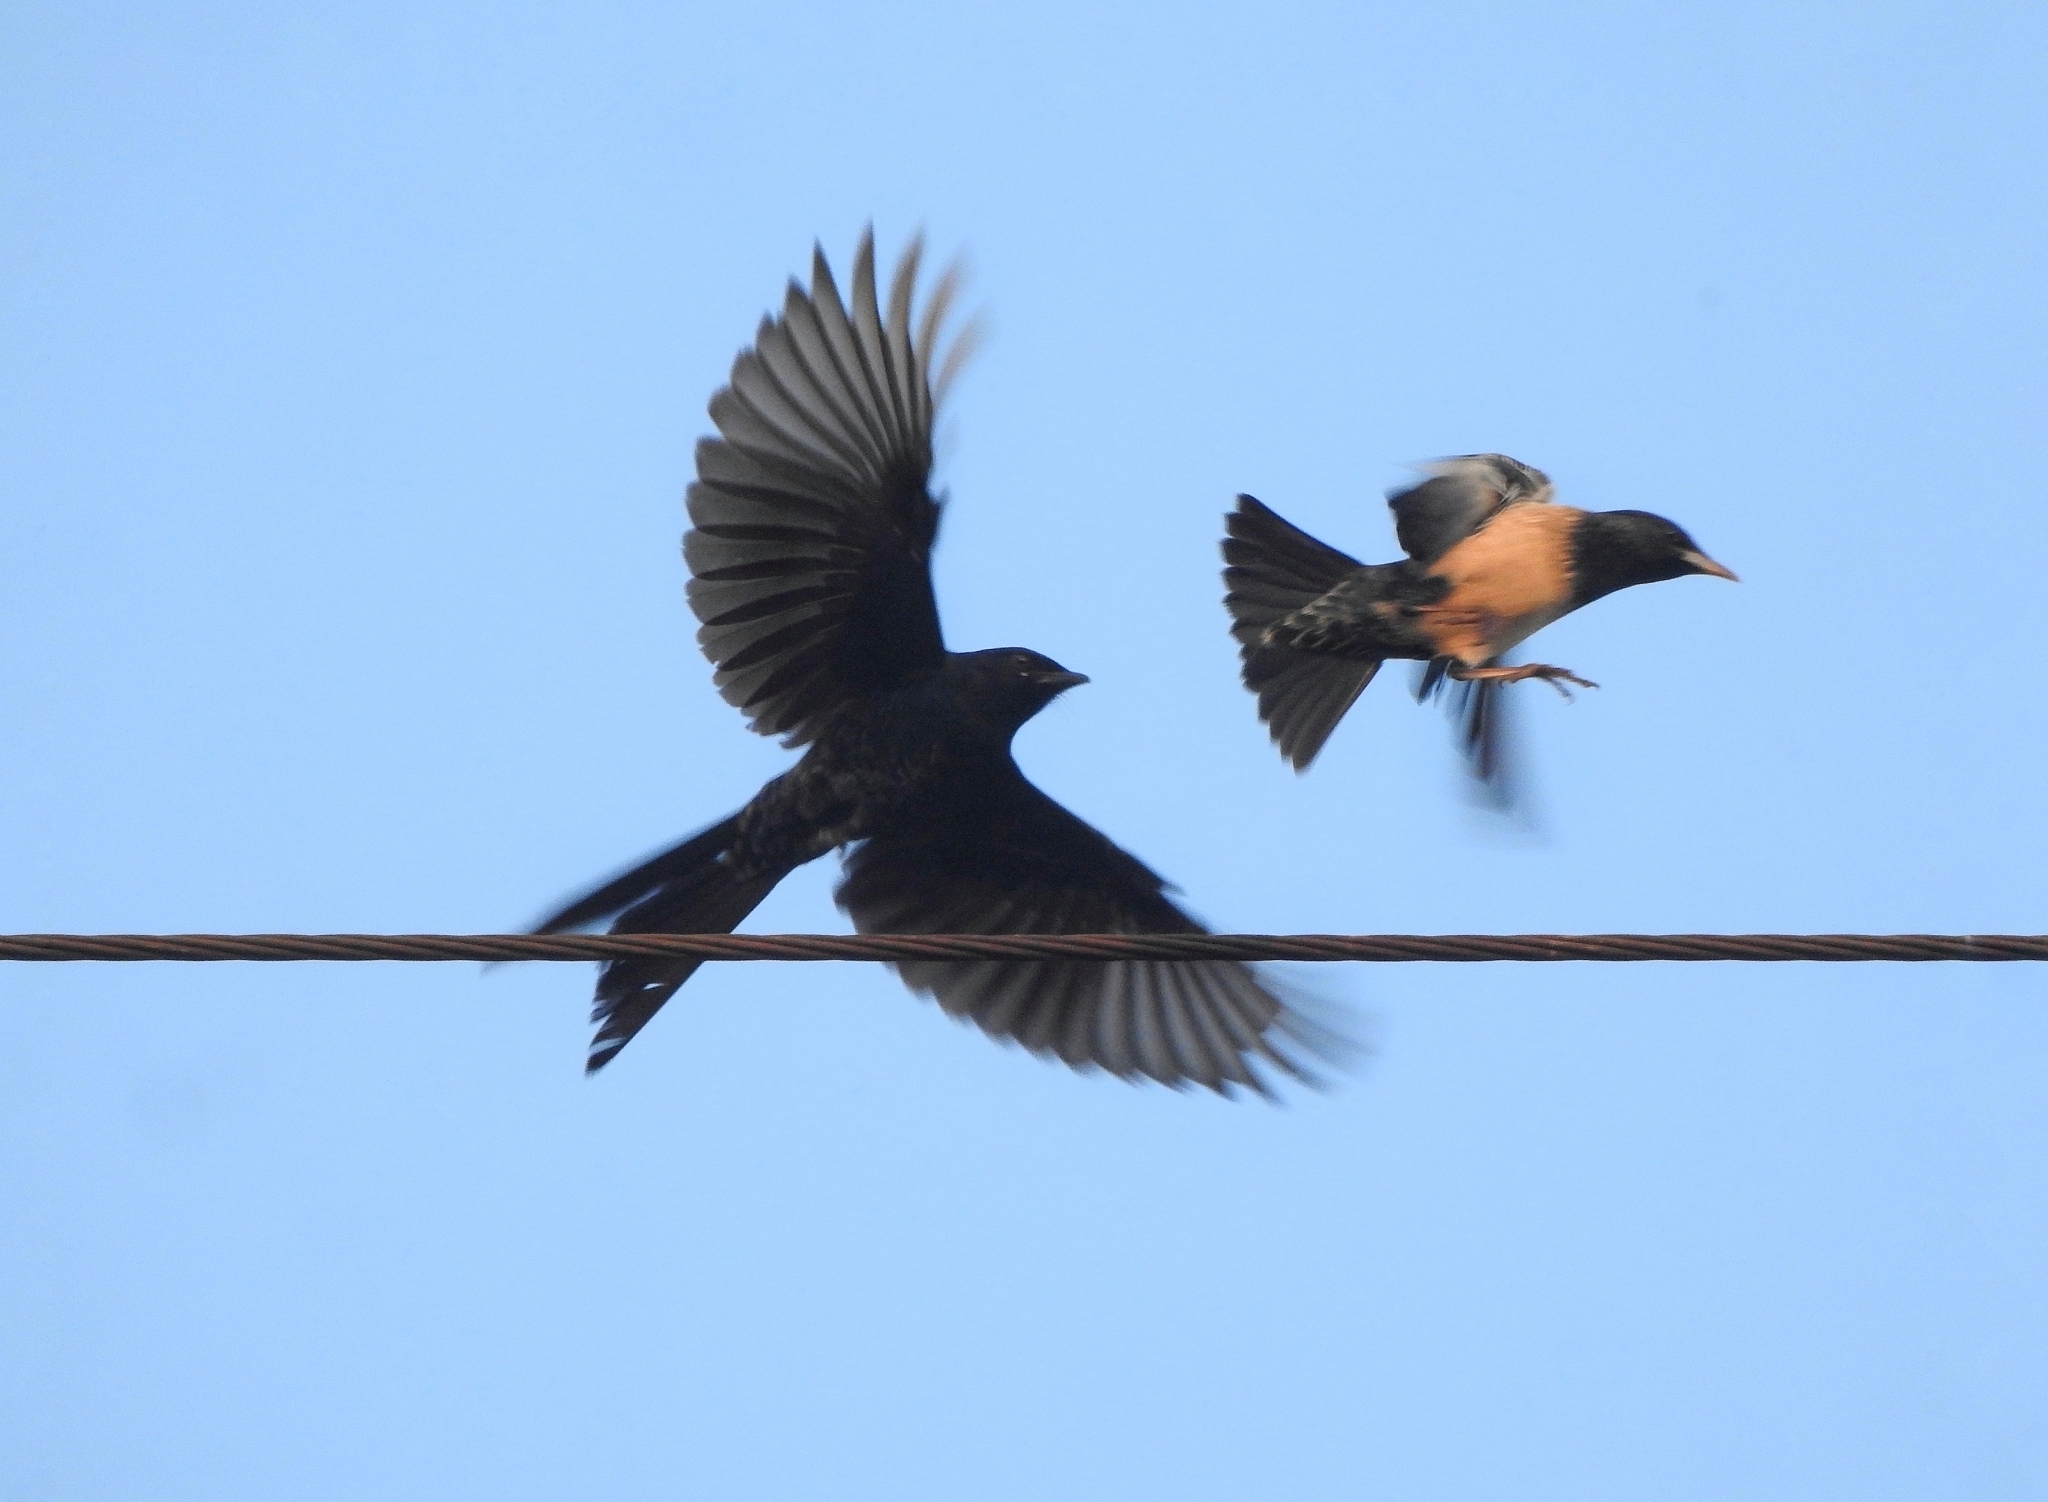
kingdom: Animalia
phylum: Chordata
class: Aves
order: Passeriformes
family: Sturnidae
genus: Pastor
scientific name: Pastor roseus
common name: Rosy starling
